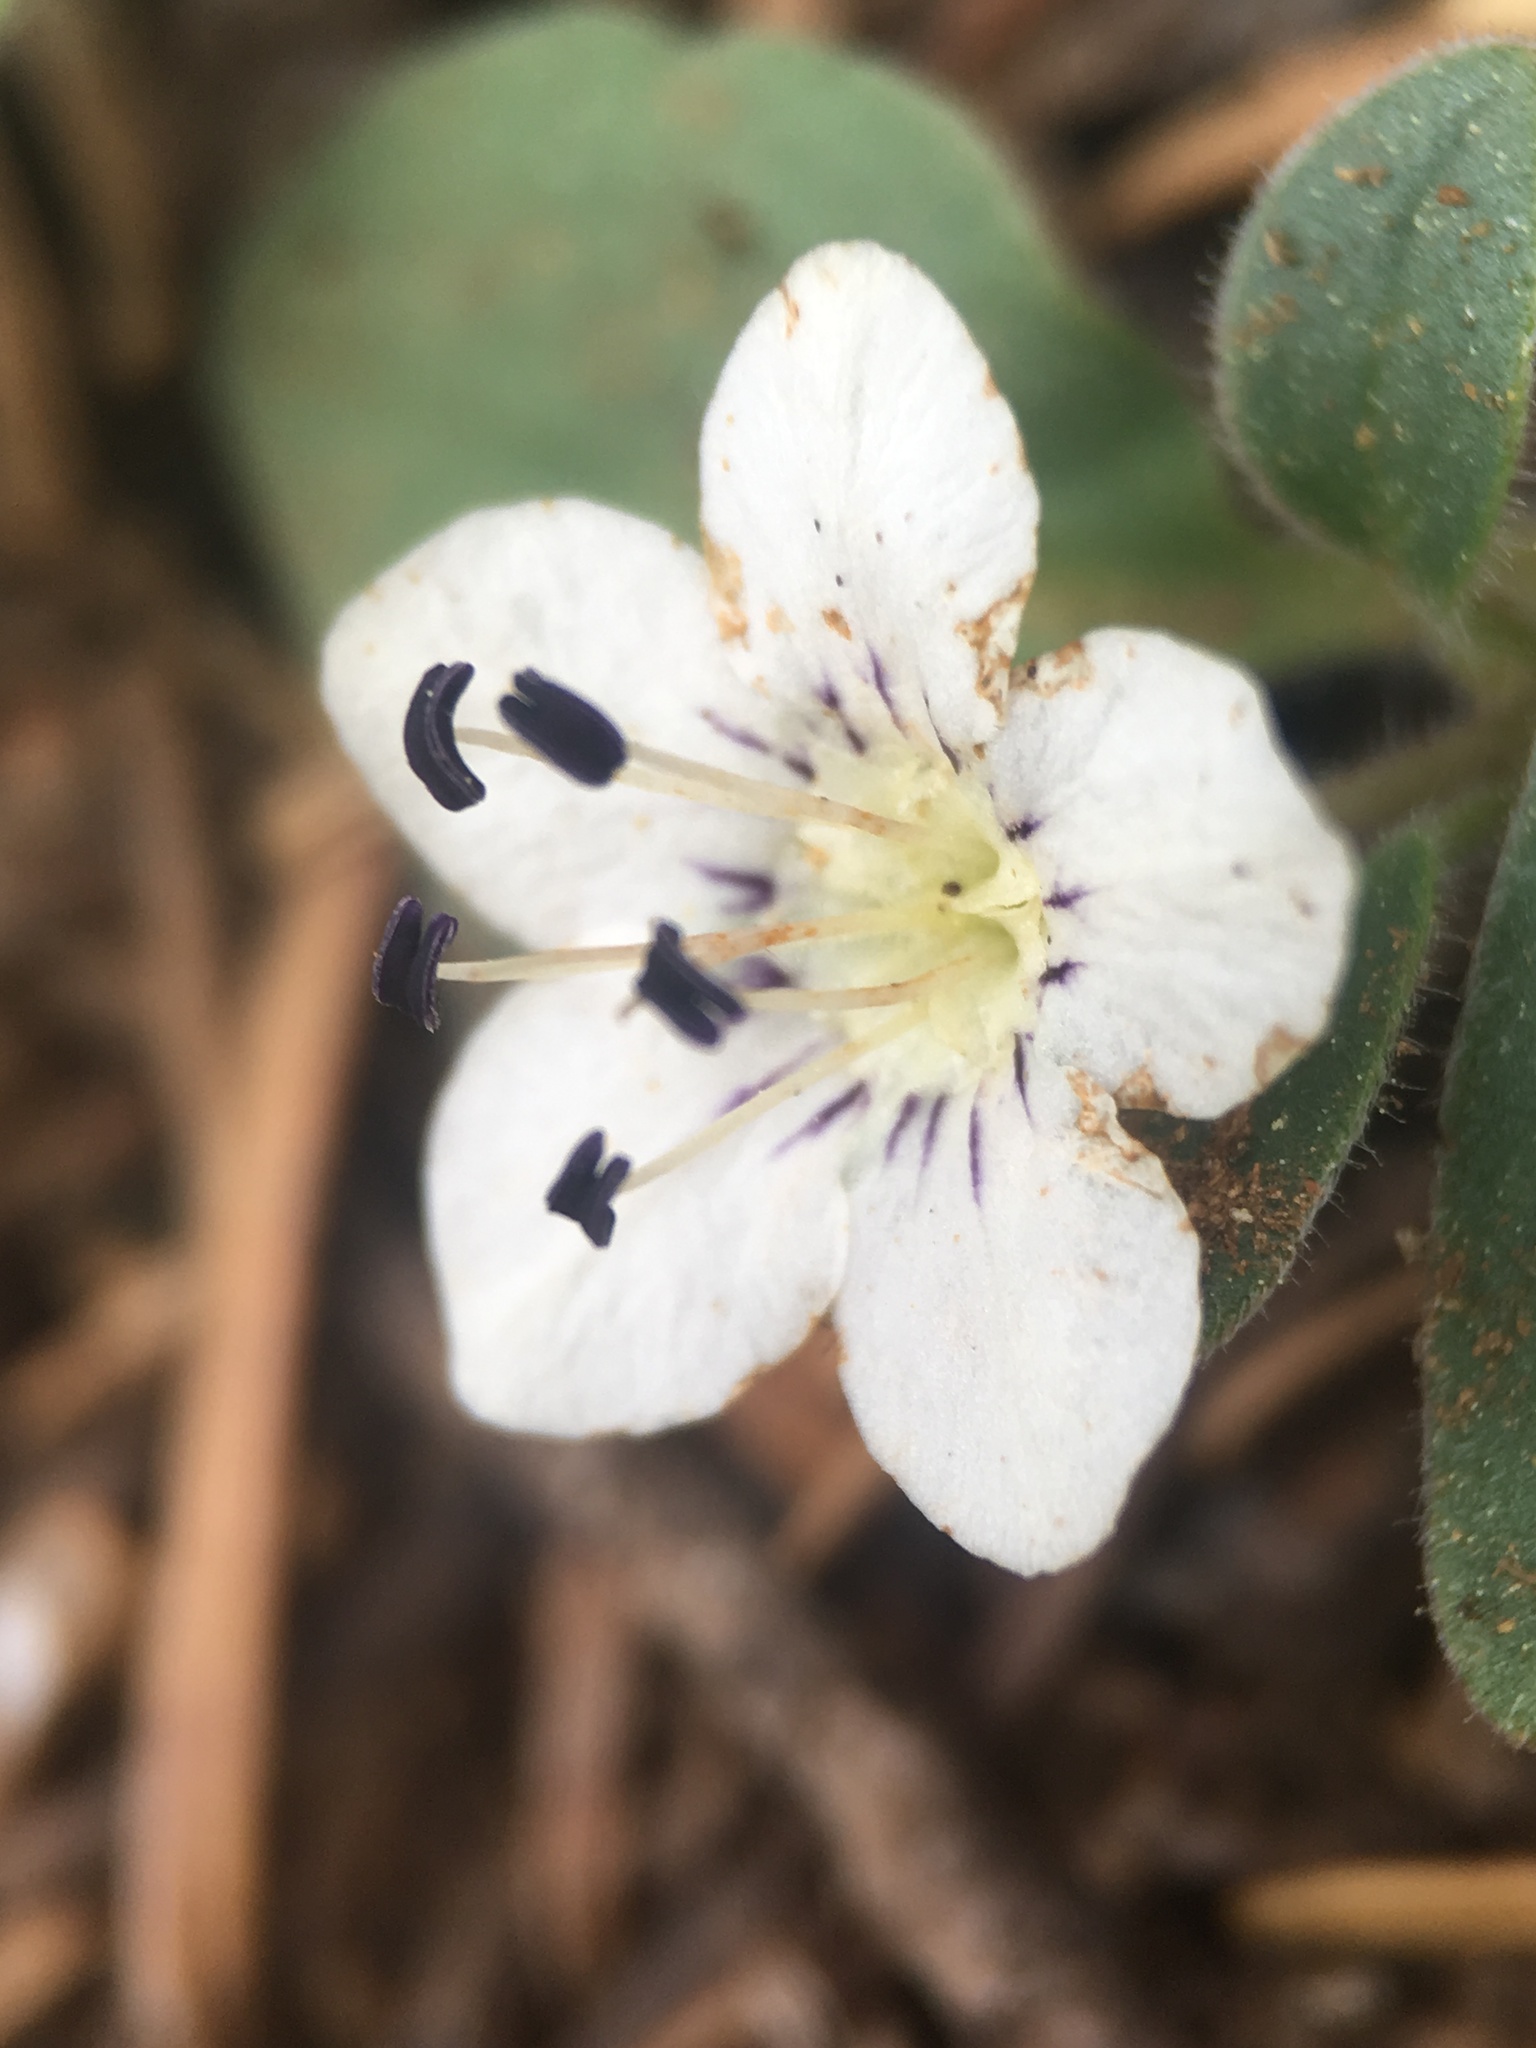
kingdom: Plantae
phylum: Tracheophyta
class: Magnoliopsida
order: Boraginales
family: Hydrophyllaceae
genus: Howellanthus
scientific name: Howellanthus dalesianus
